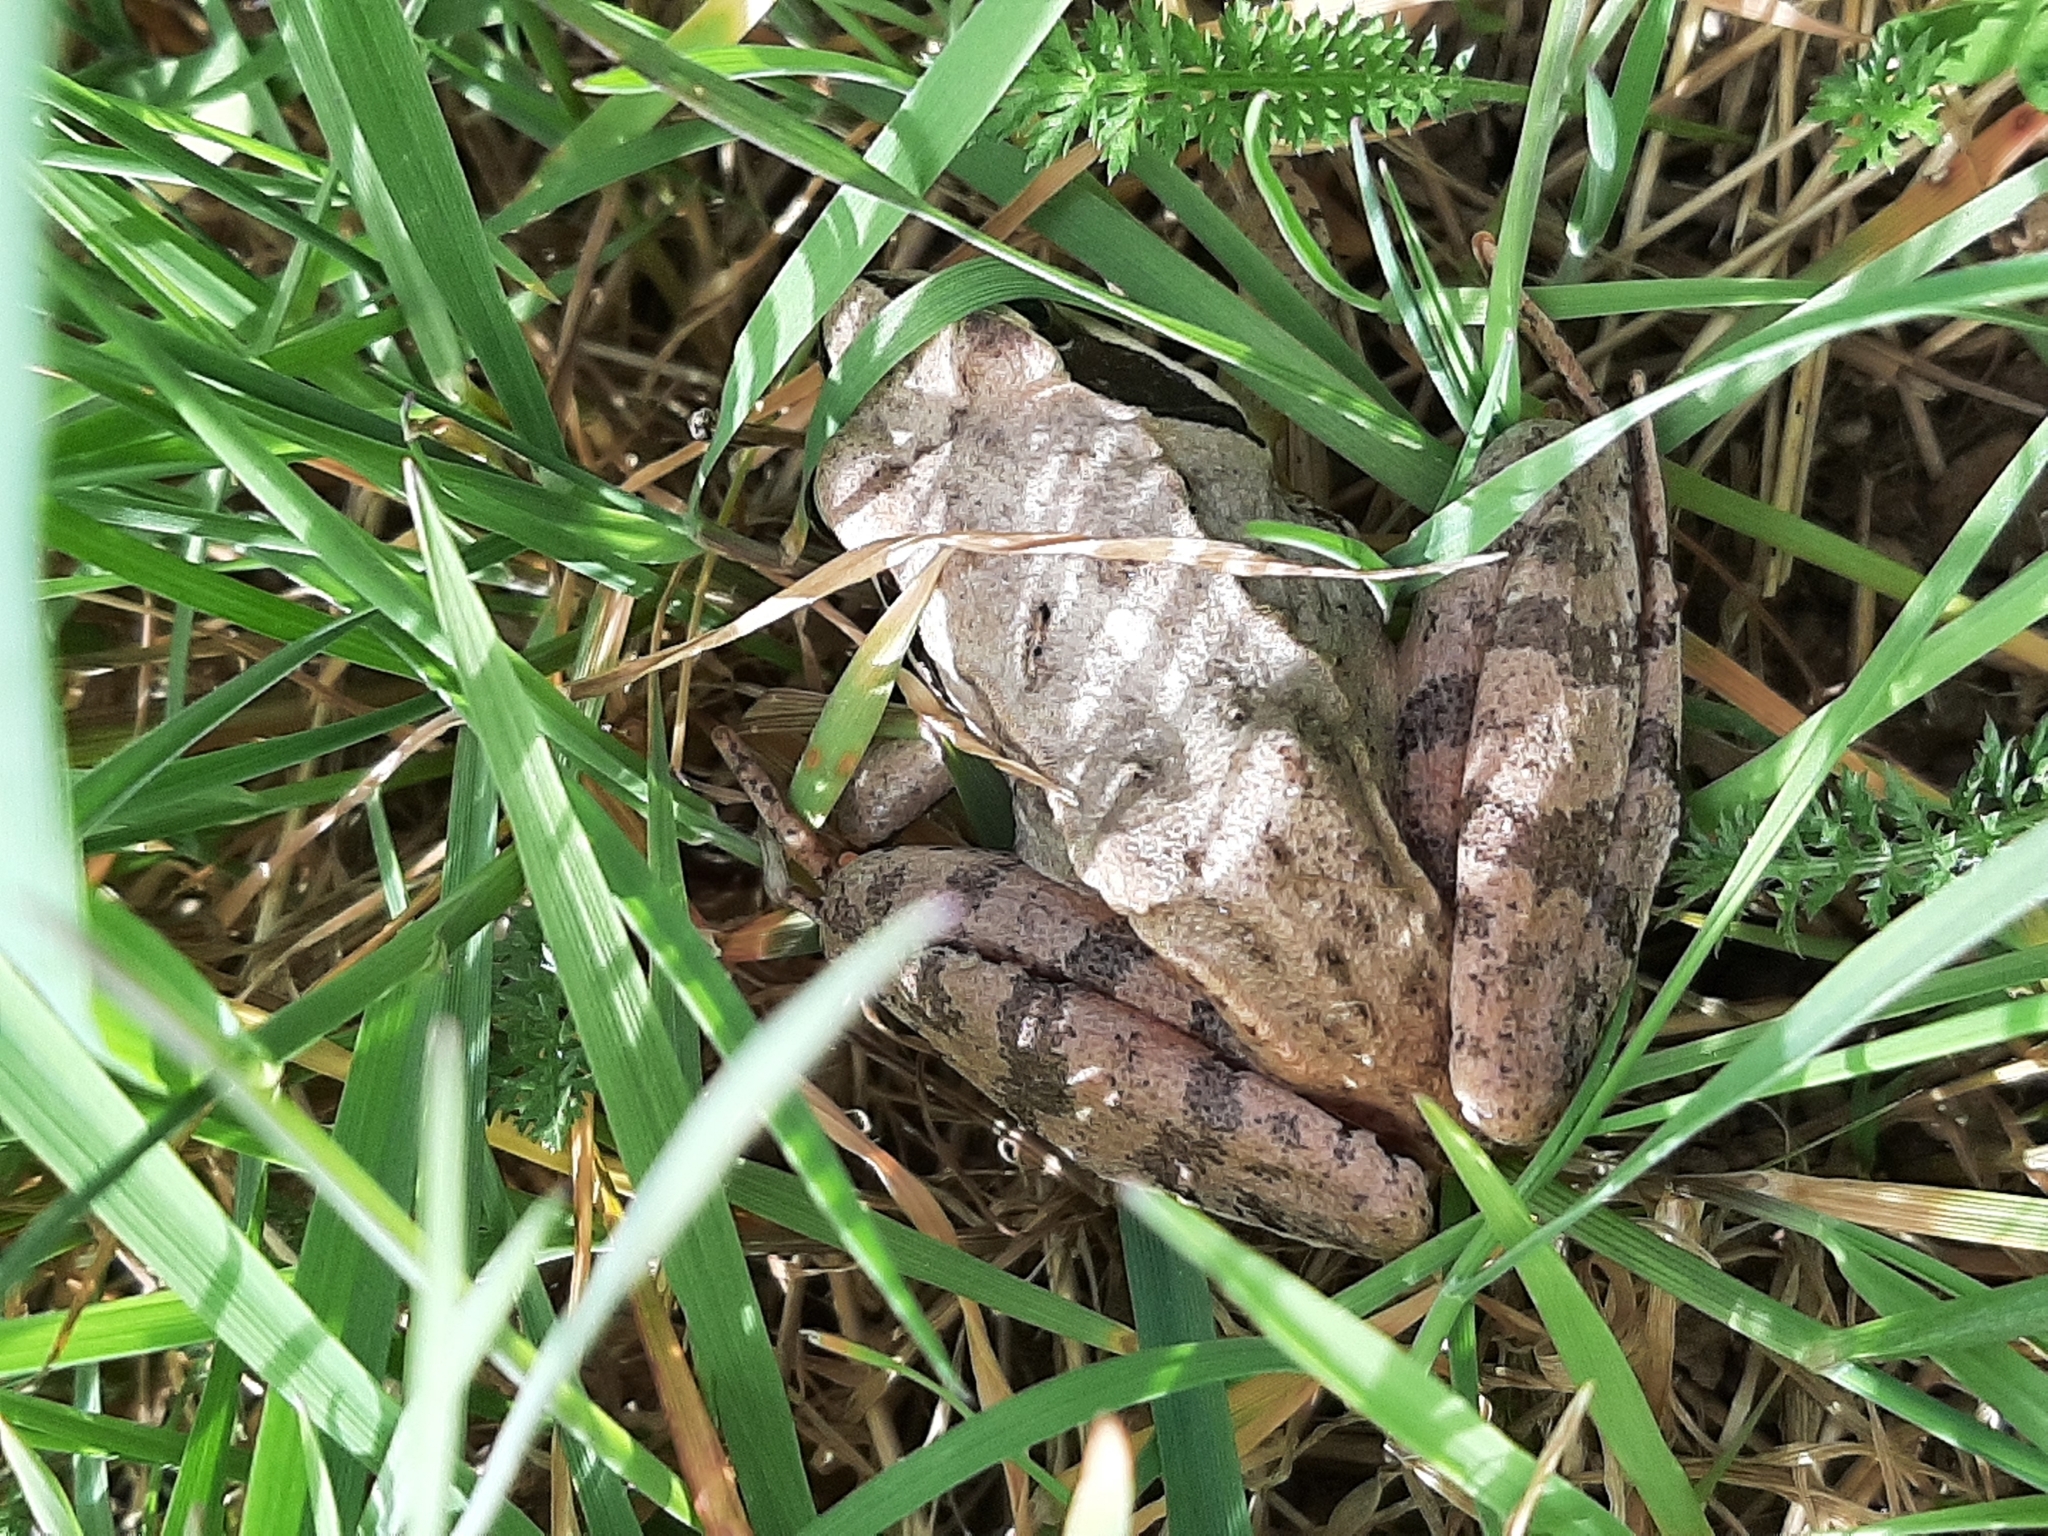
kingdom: Animalia
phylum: Chordata
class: Amphibia
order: Anura
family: Ranidae
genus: Rana
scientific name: Rana dalmatina
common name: Agile frog
